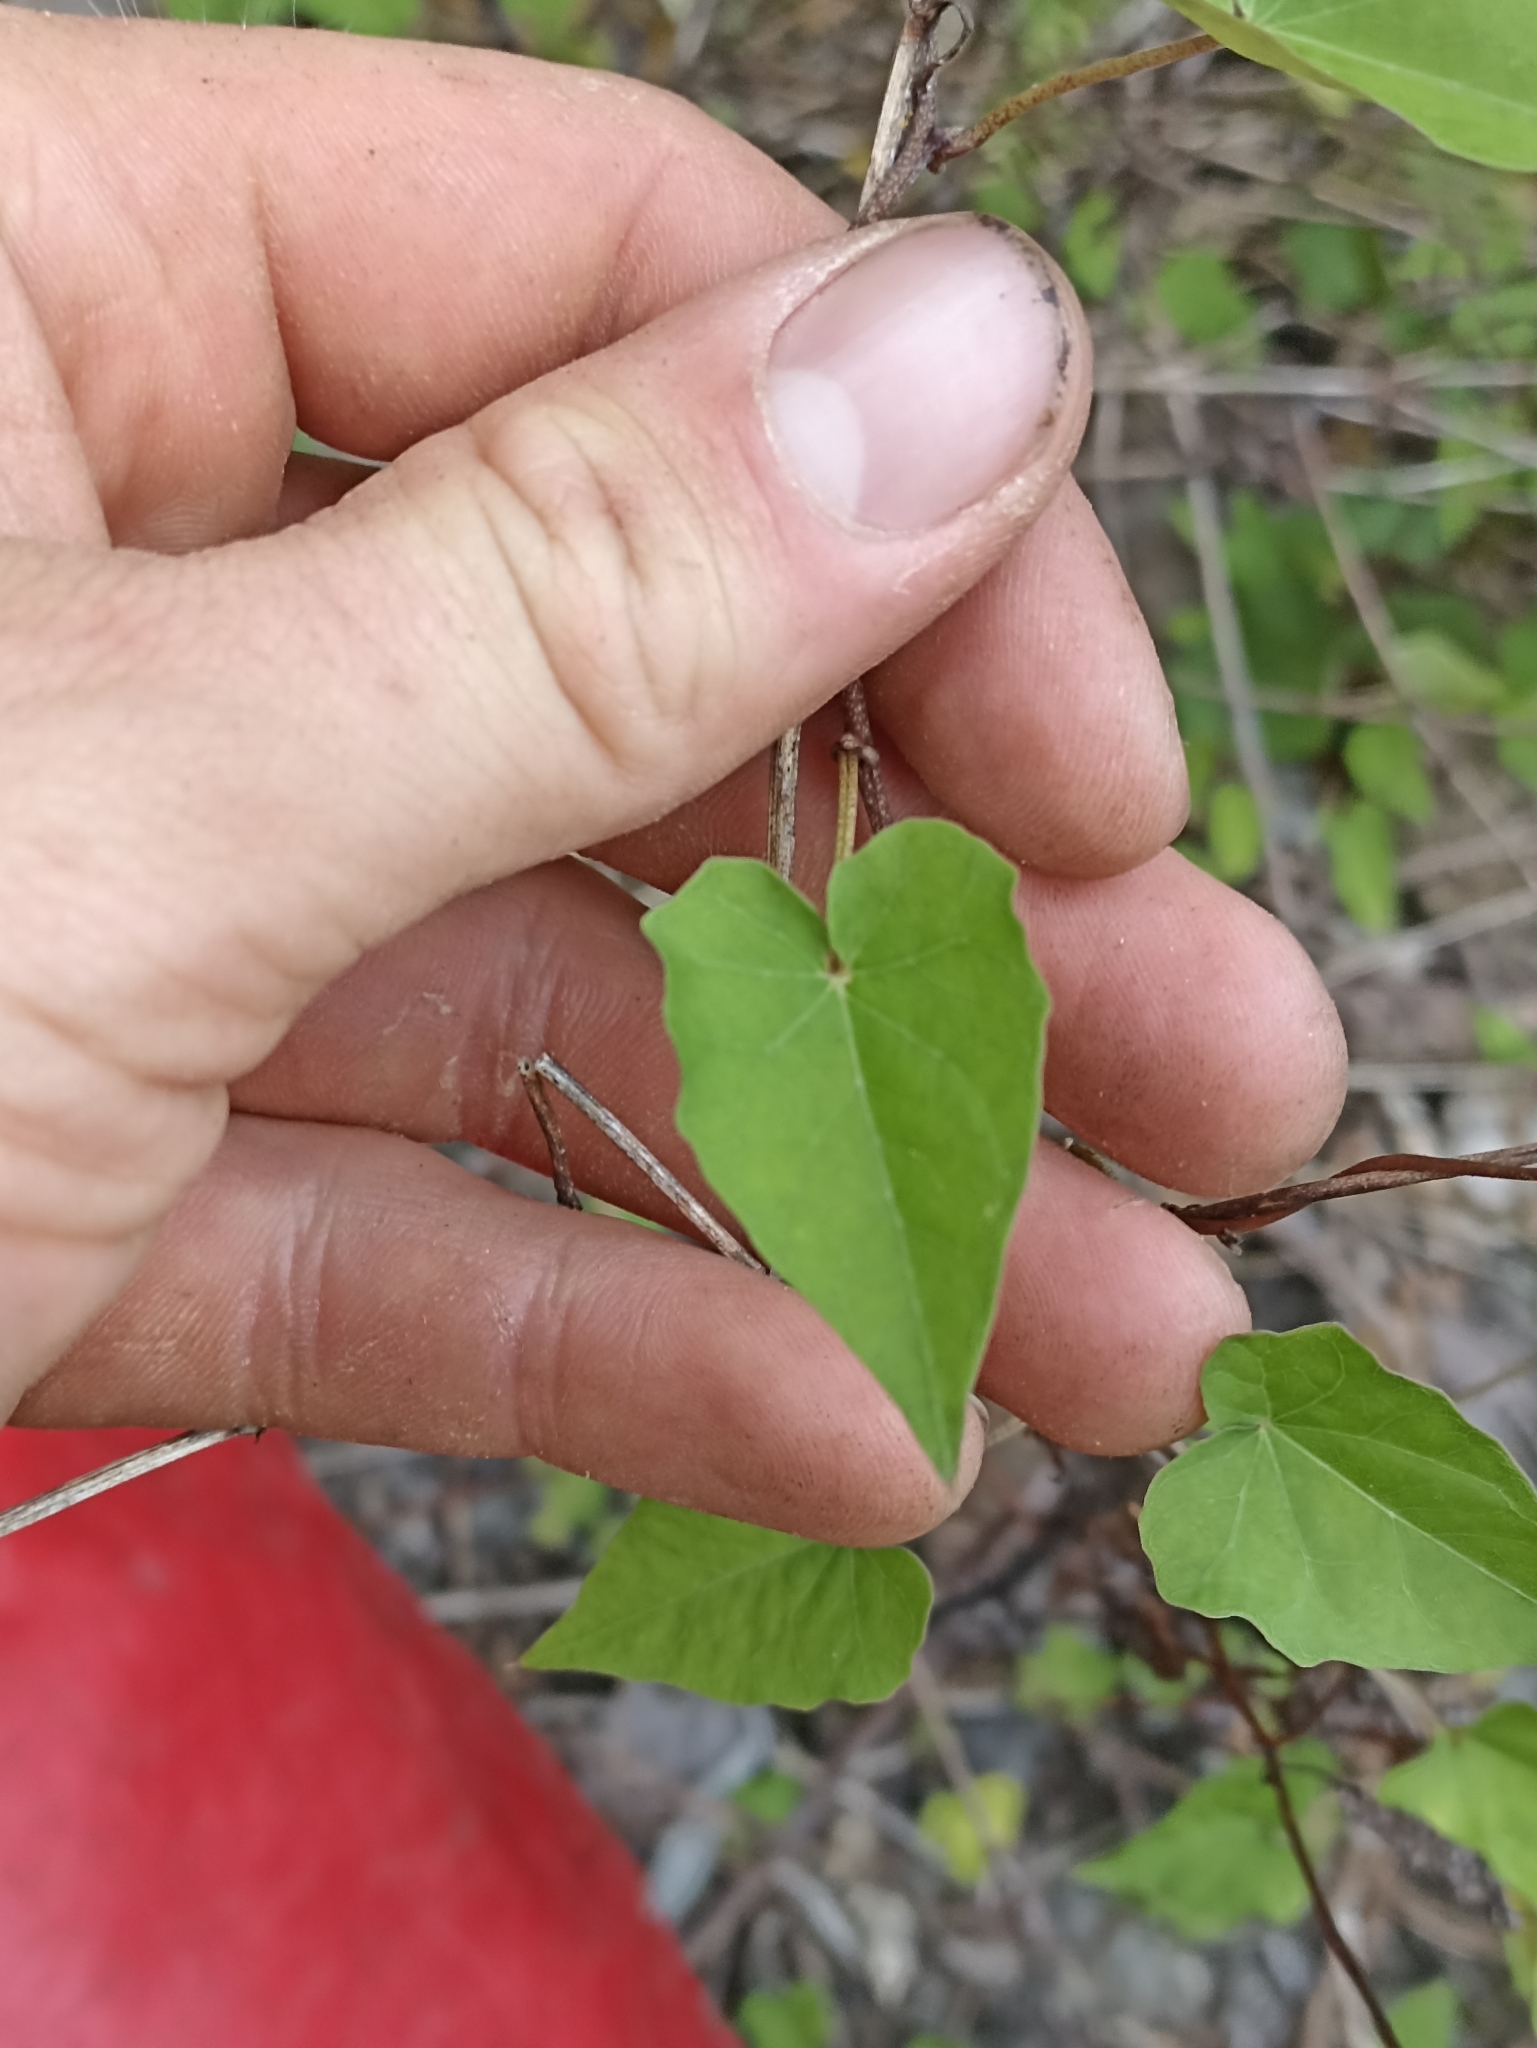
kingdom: Plantae
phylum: Tracheophyta
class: Magnoliopsida
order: Solanales
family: Convolvulaceae
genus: Calystegia
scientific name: Calystegia tuguriorum
